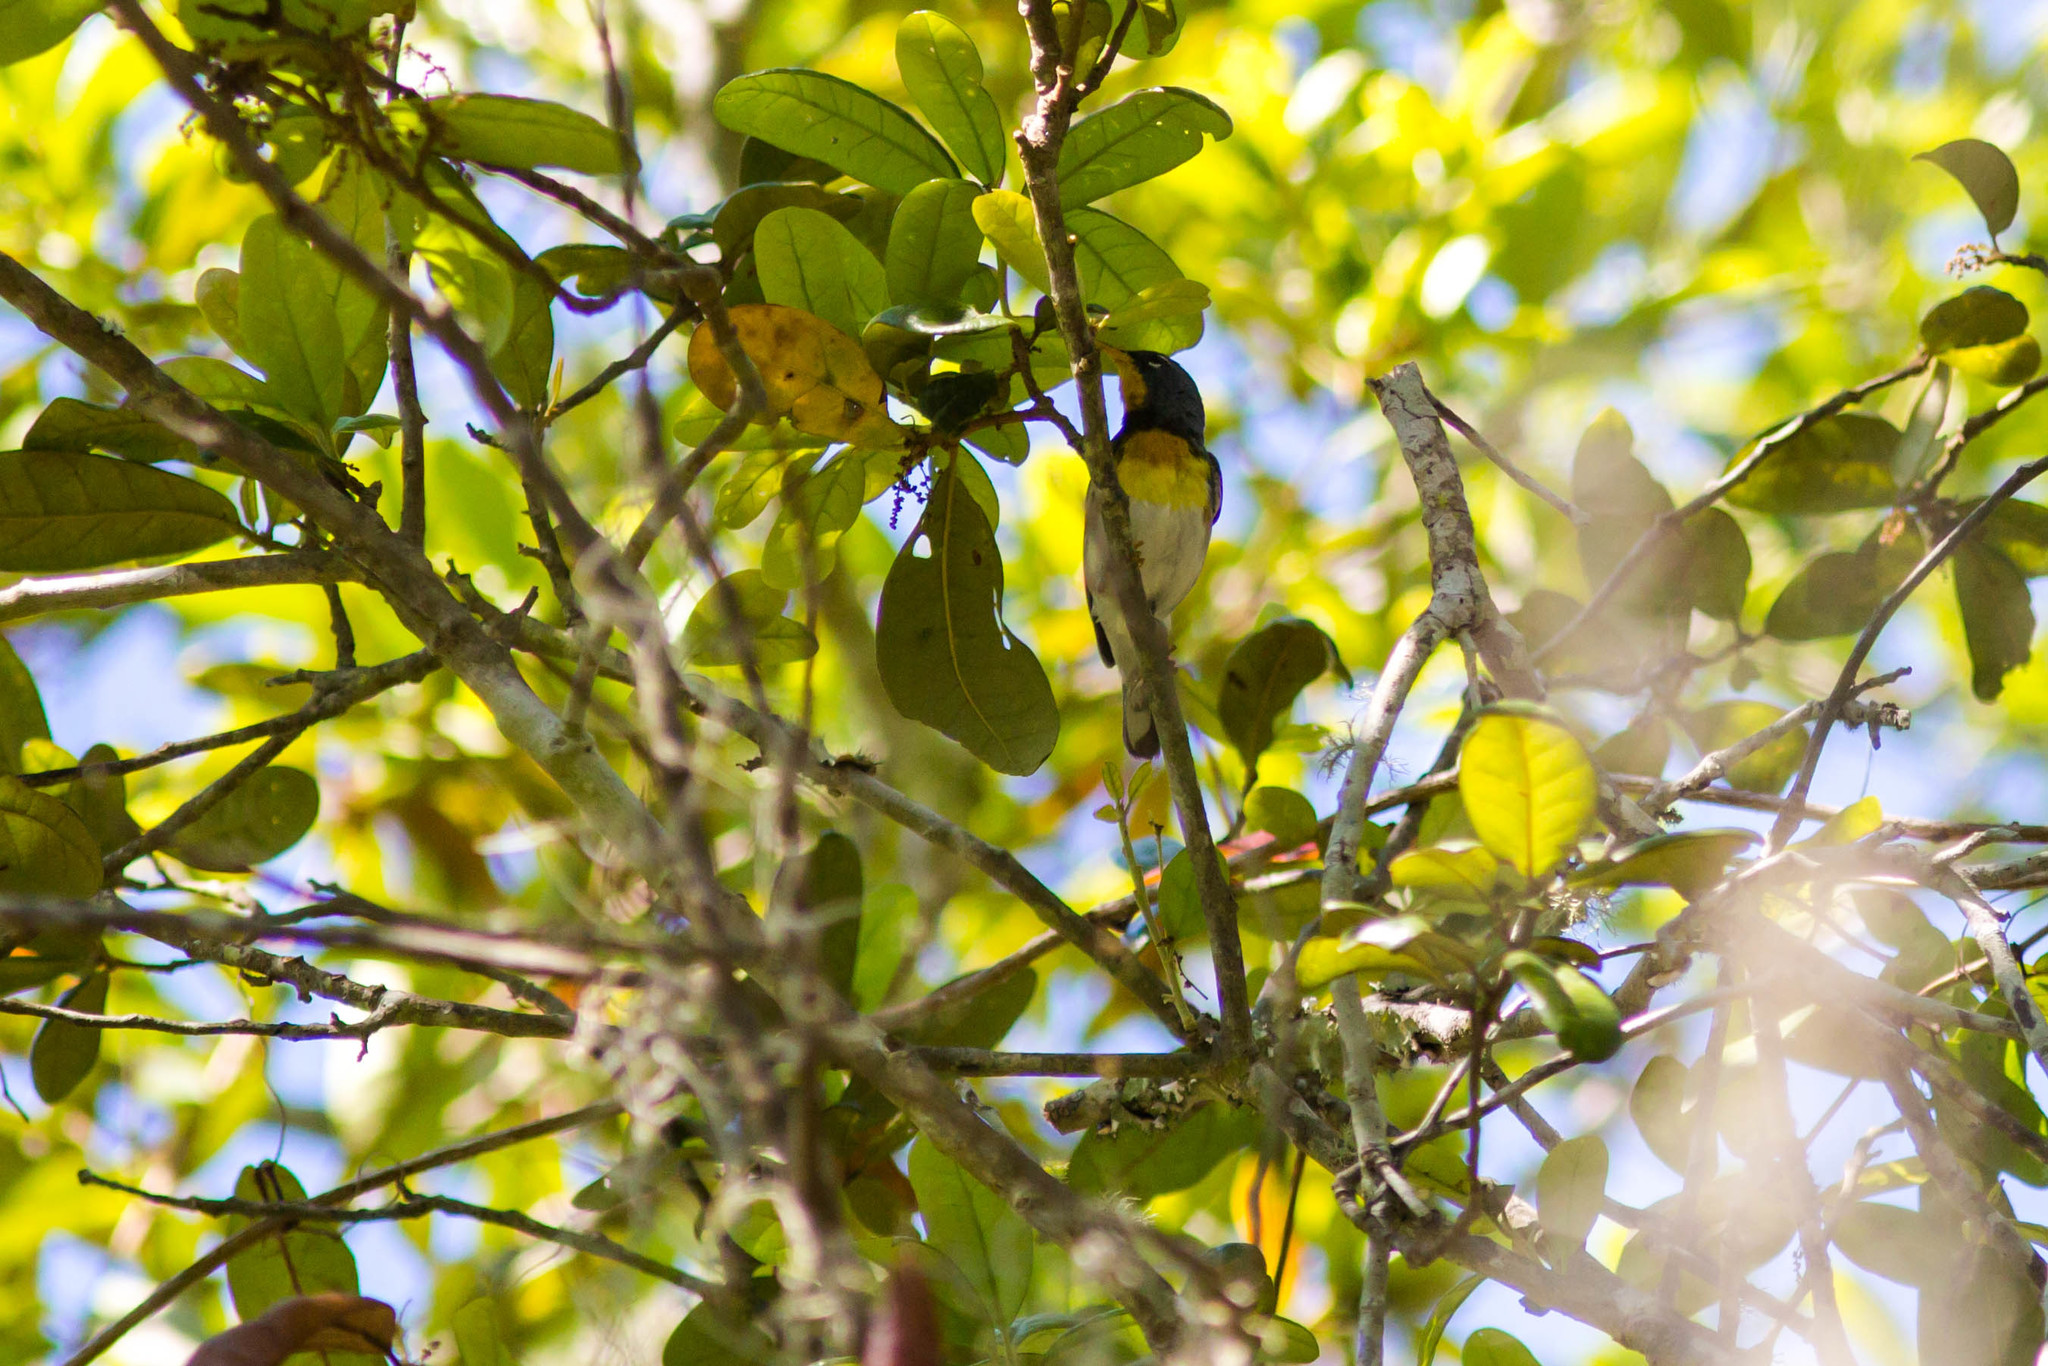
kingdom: Animalia
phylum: Chordata
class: Aves
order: Passeriformes
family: Parulidae
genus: Setophaga
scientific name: Setophaga americana
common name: Northern parula
